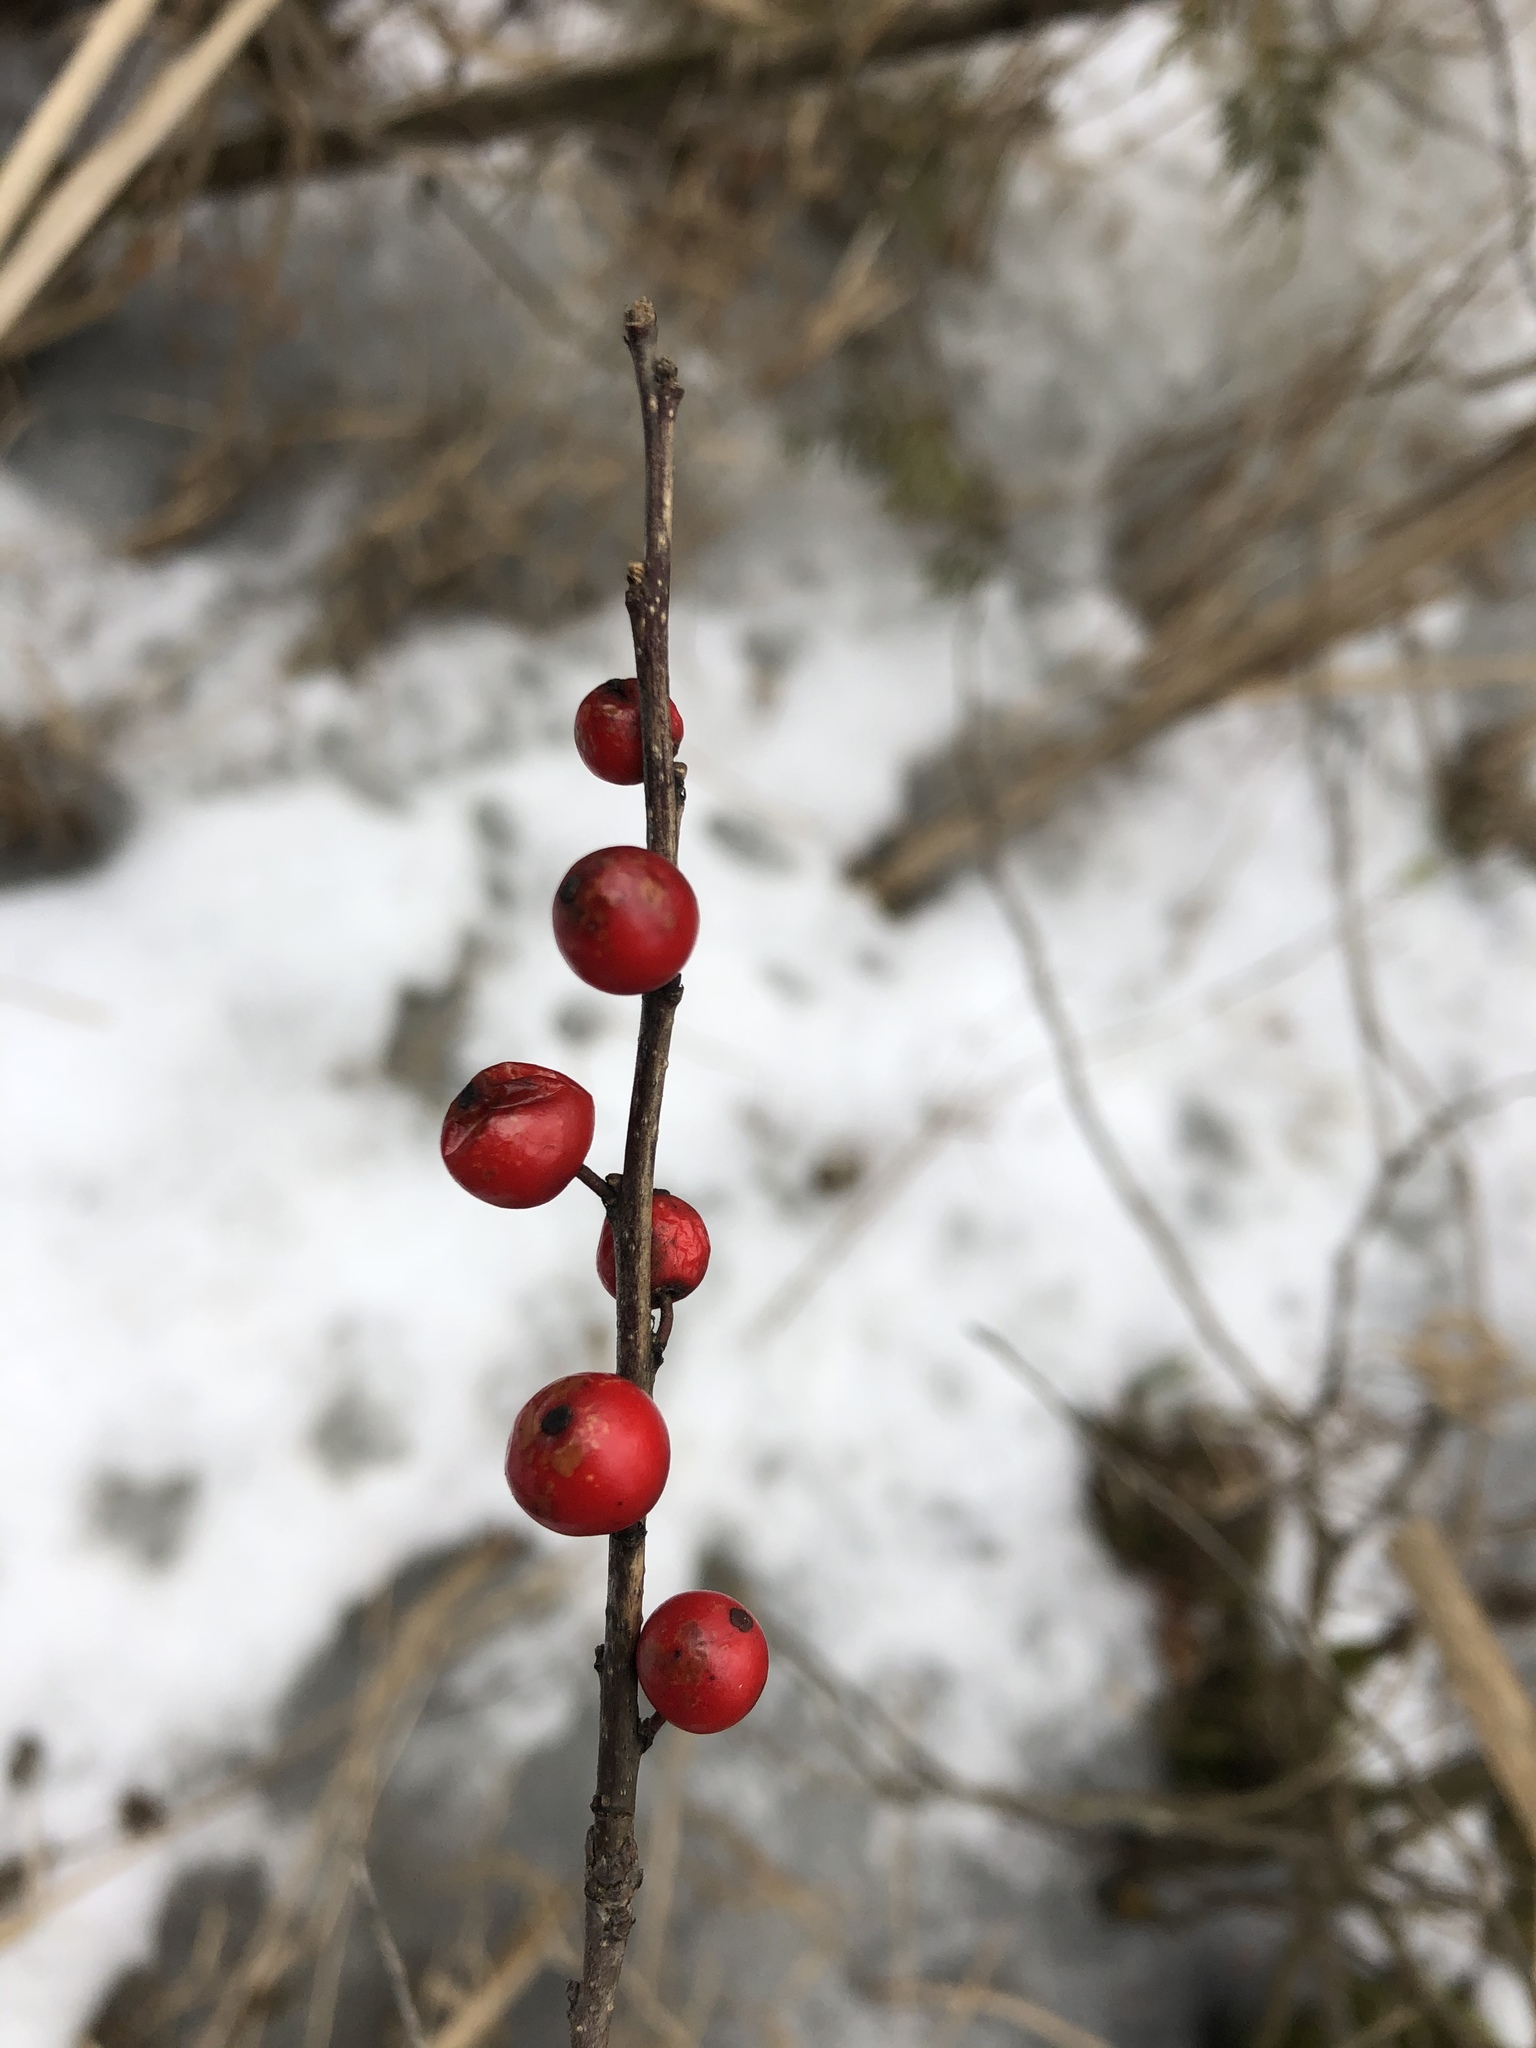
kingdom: Plantae
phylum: Tracheophyta
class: Magnoliopsida
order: Aquifoliales
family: Aquifoliaceae
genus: Ilex
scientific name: Ilex verticillata
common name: Virginia winterberry
